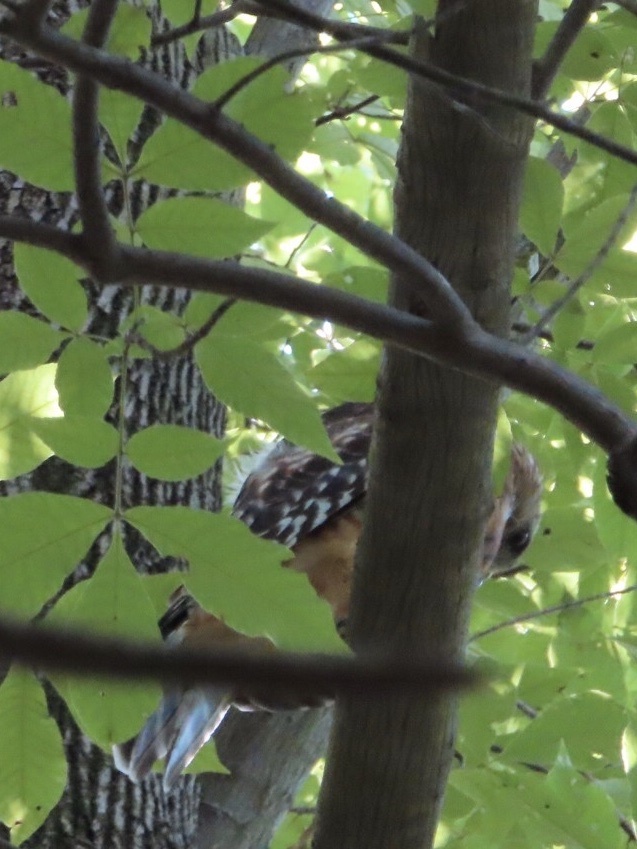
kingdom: Animalia
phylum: Chordata
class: Aves
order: Accipitriformes
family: Accipitridae
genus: Buteo
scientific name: Buteo lineatus
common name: Red-shouldered hawk
